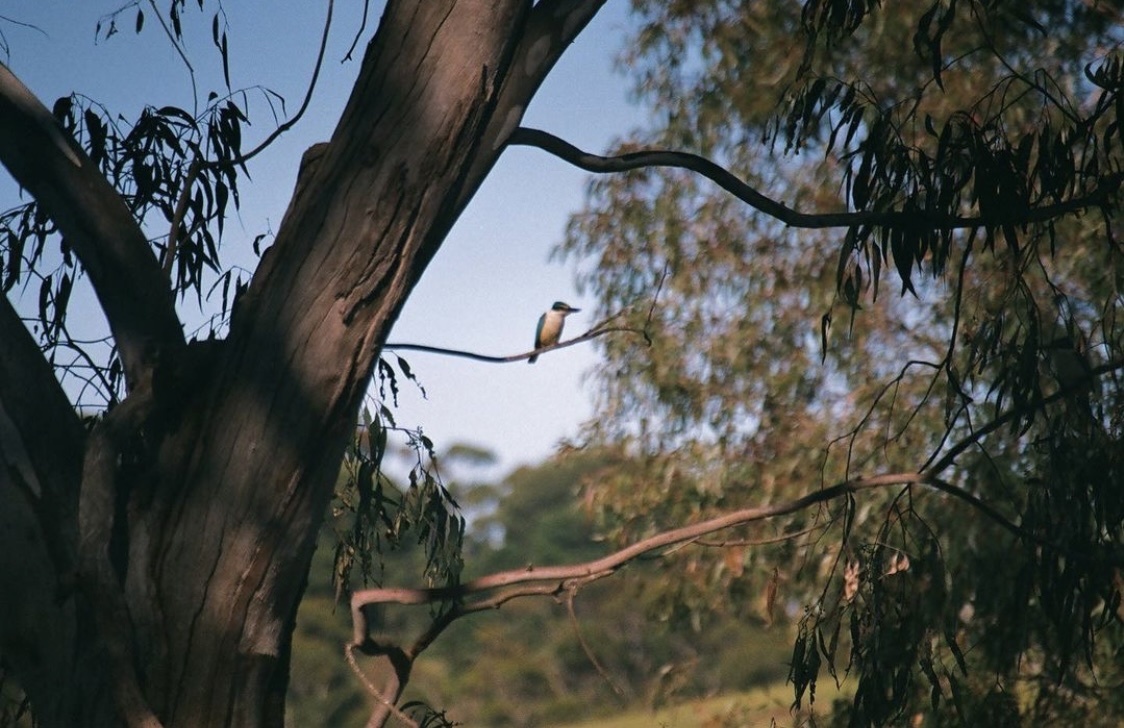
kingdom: Animalia
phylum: Chordata
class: Aves
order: Coraciiformes
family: Alcedinidae
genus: Todiramphus
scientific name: Todiramphus sanctus
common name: Sacred kingfisher
